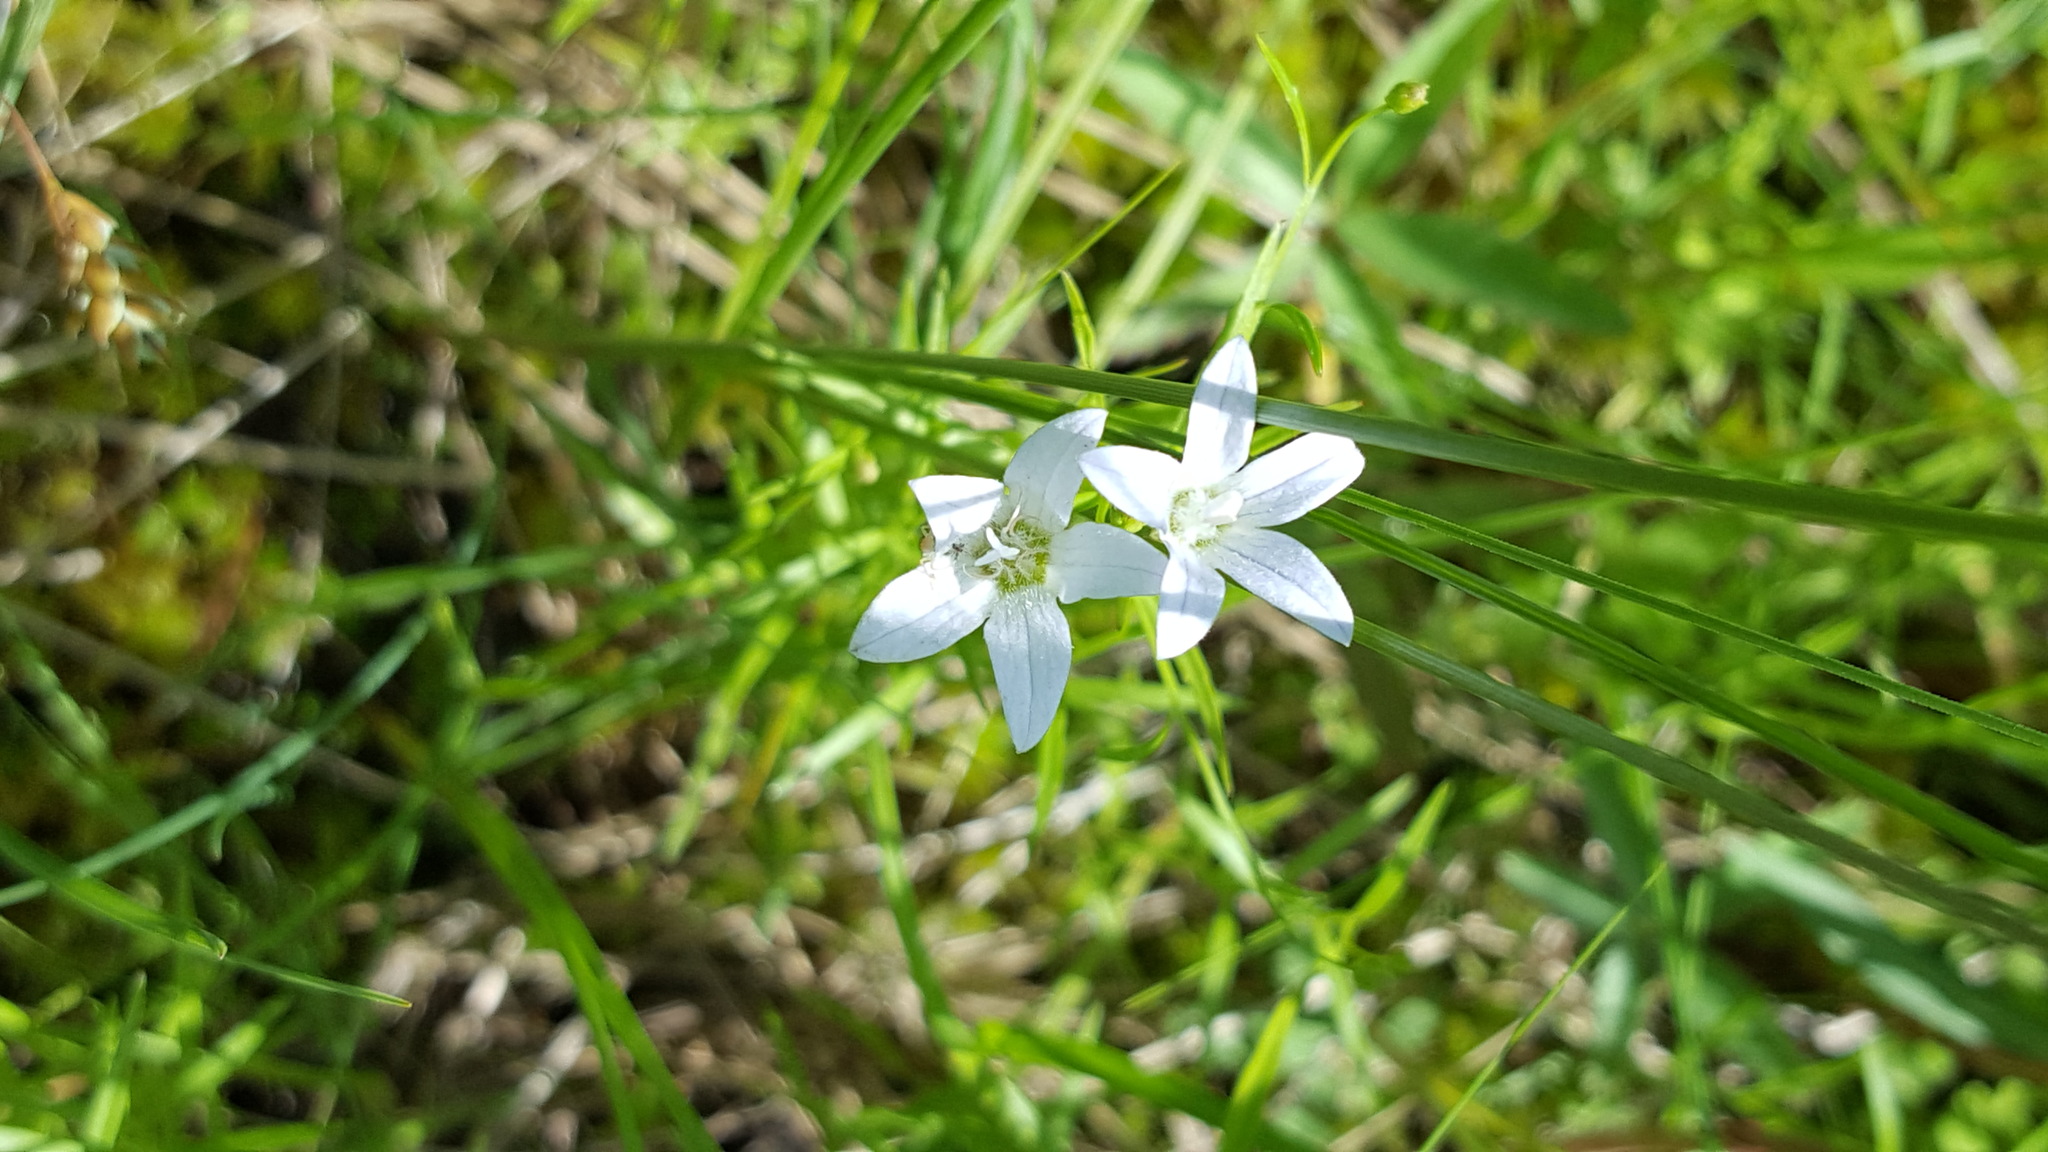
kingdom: Plantae
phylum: Tracheophyta
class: Magnoliopsida
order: Asterales
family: Campanulaceae
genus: Palustricodon
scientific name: Palustricodon aparinoides
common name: Bedstraw bellflower
